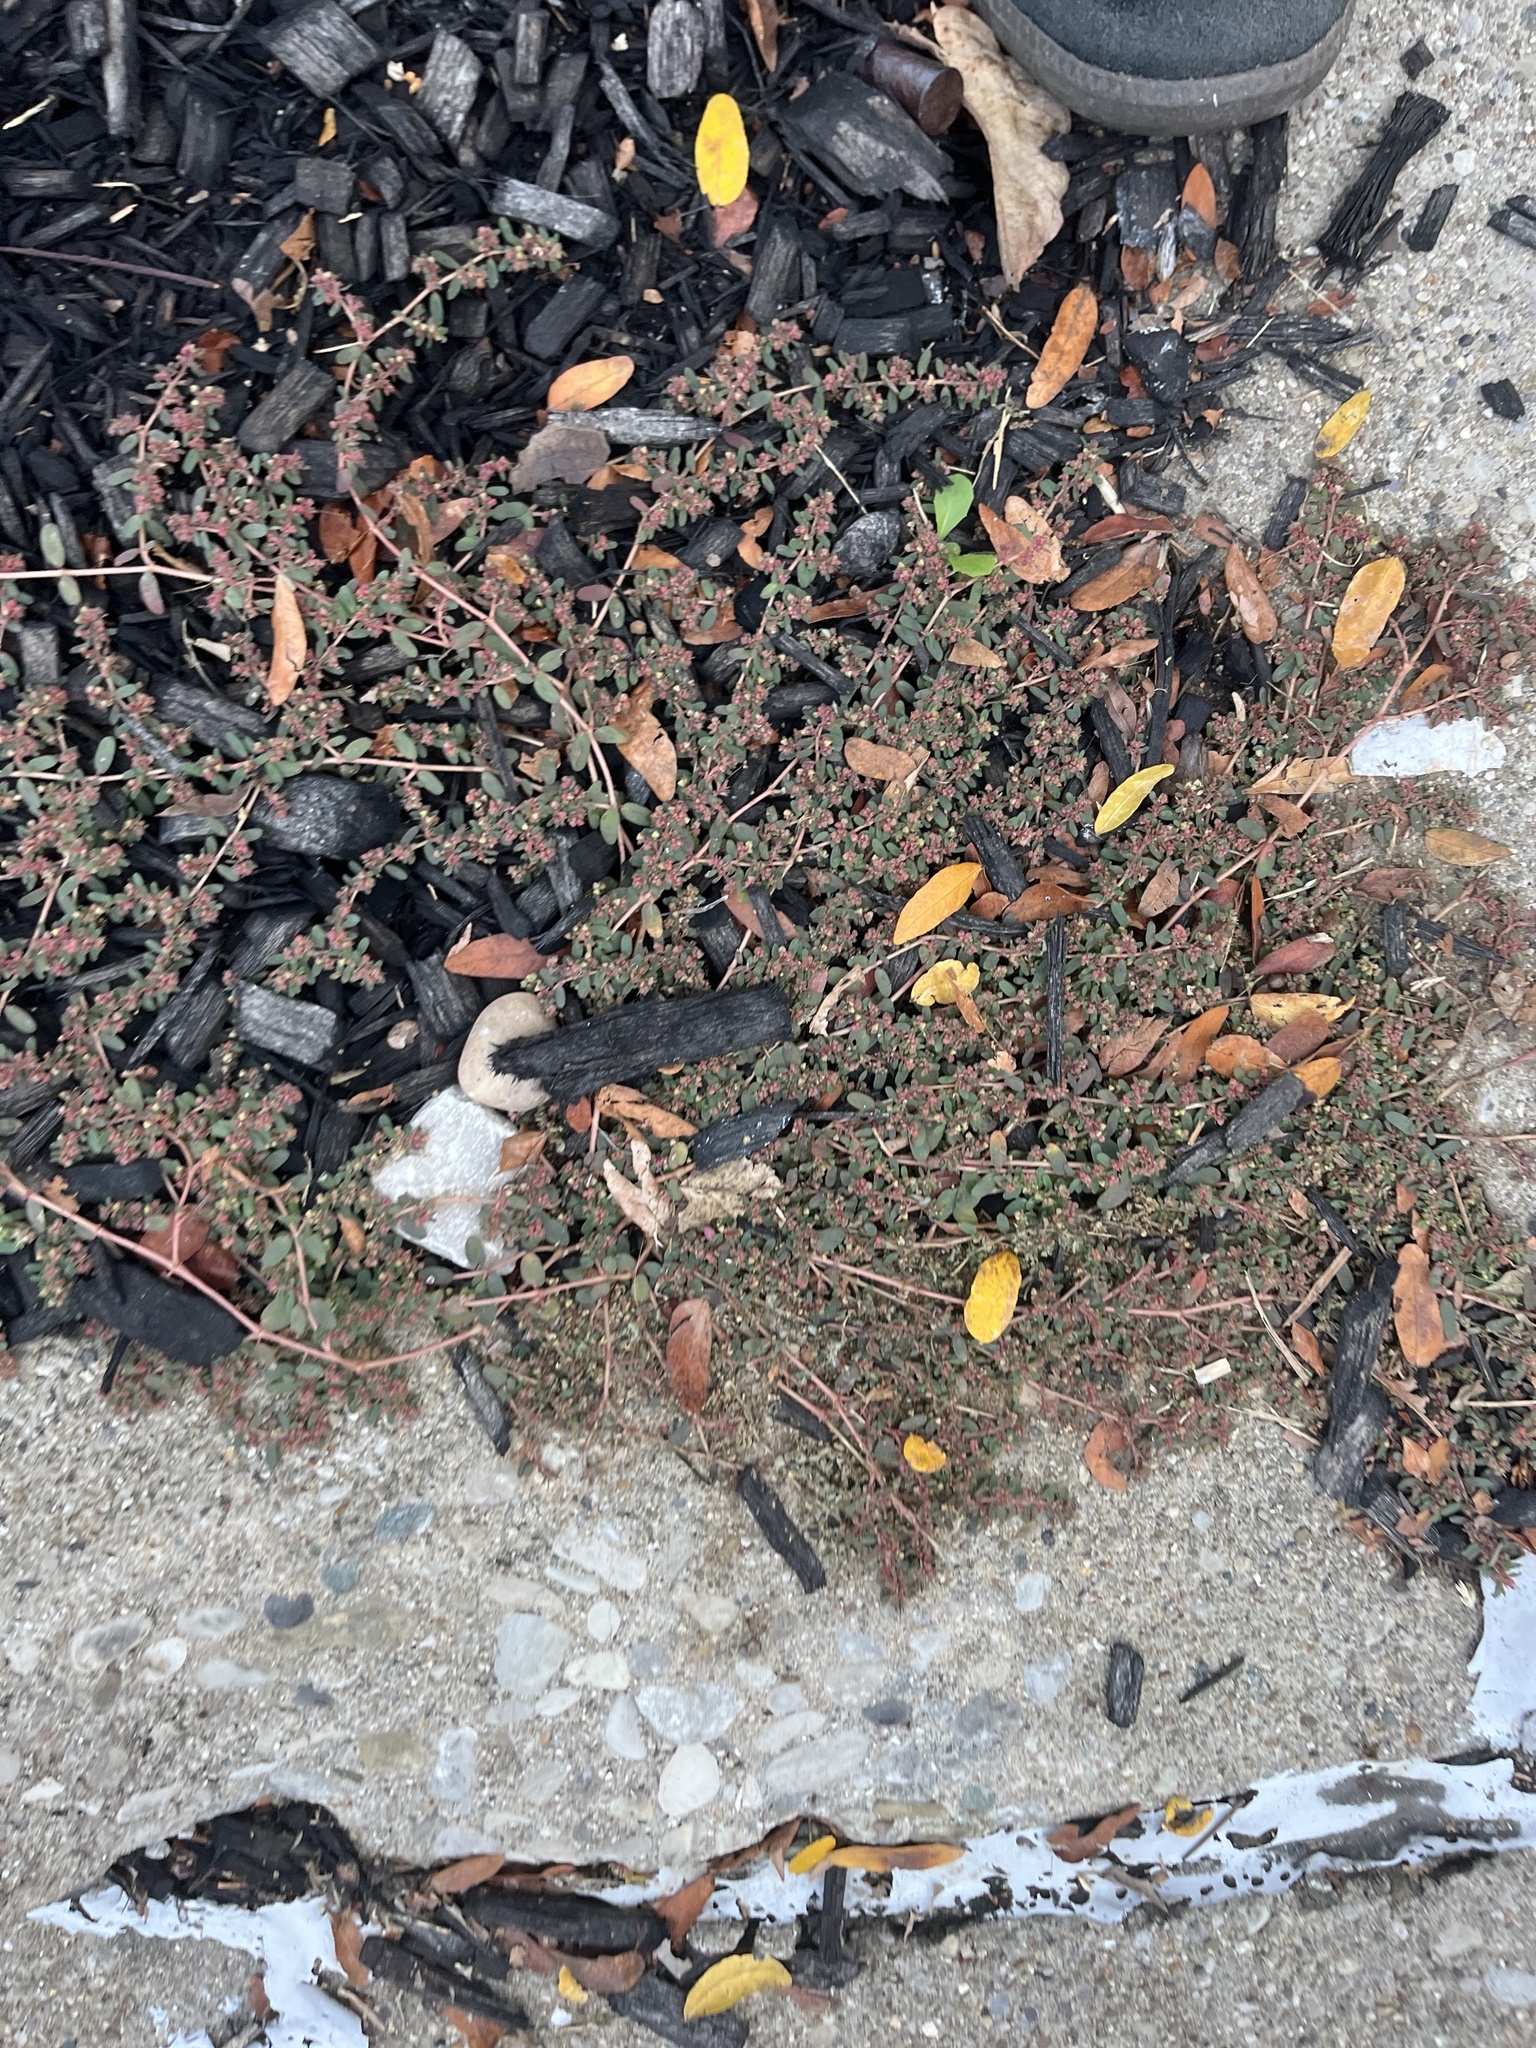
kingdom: Plantae
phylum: Tracheophyta
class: Magnoliopsida
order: Malpighiales
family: Euphorbiaceae
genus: Euphorbia
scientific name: Euphorbia maculata
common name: Spotted spurge
